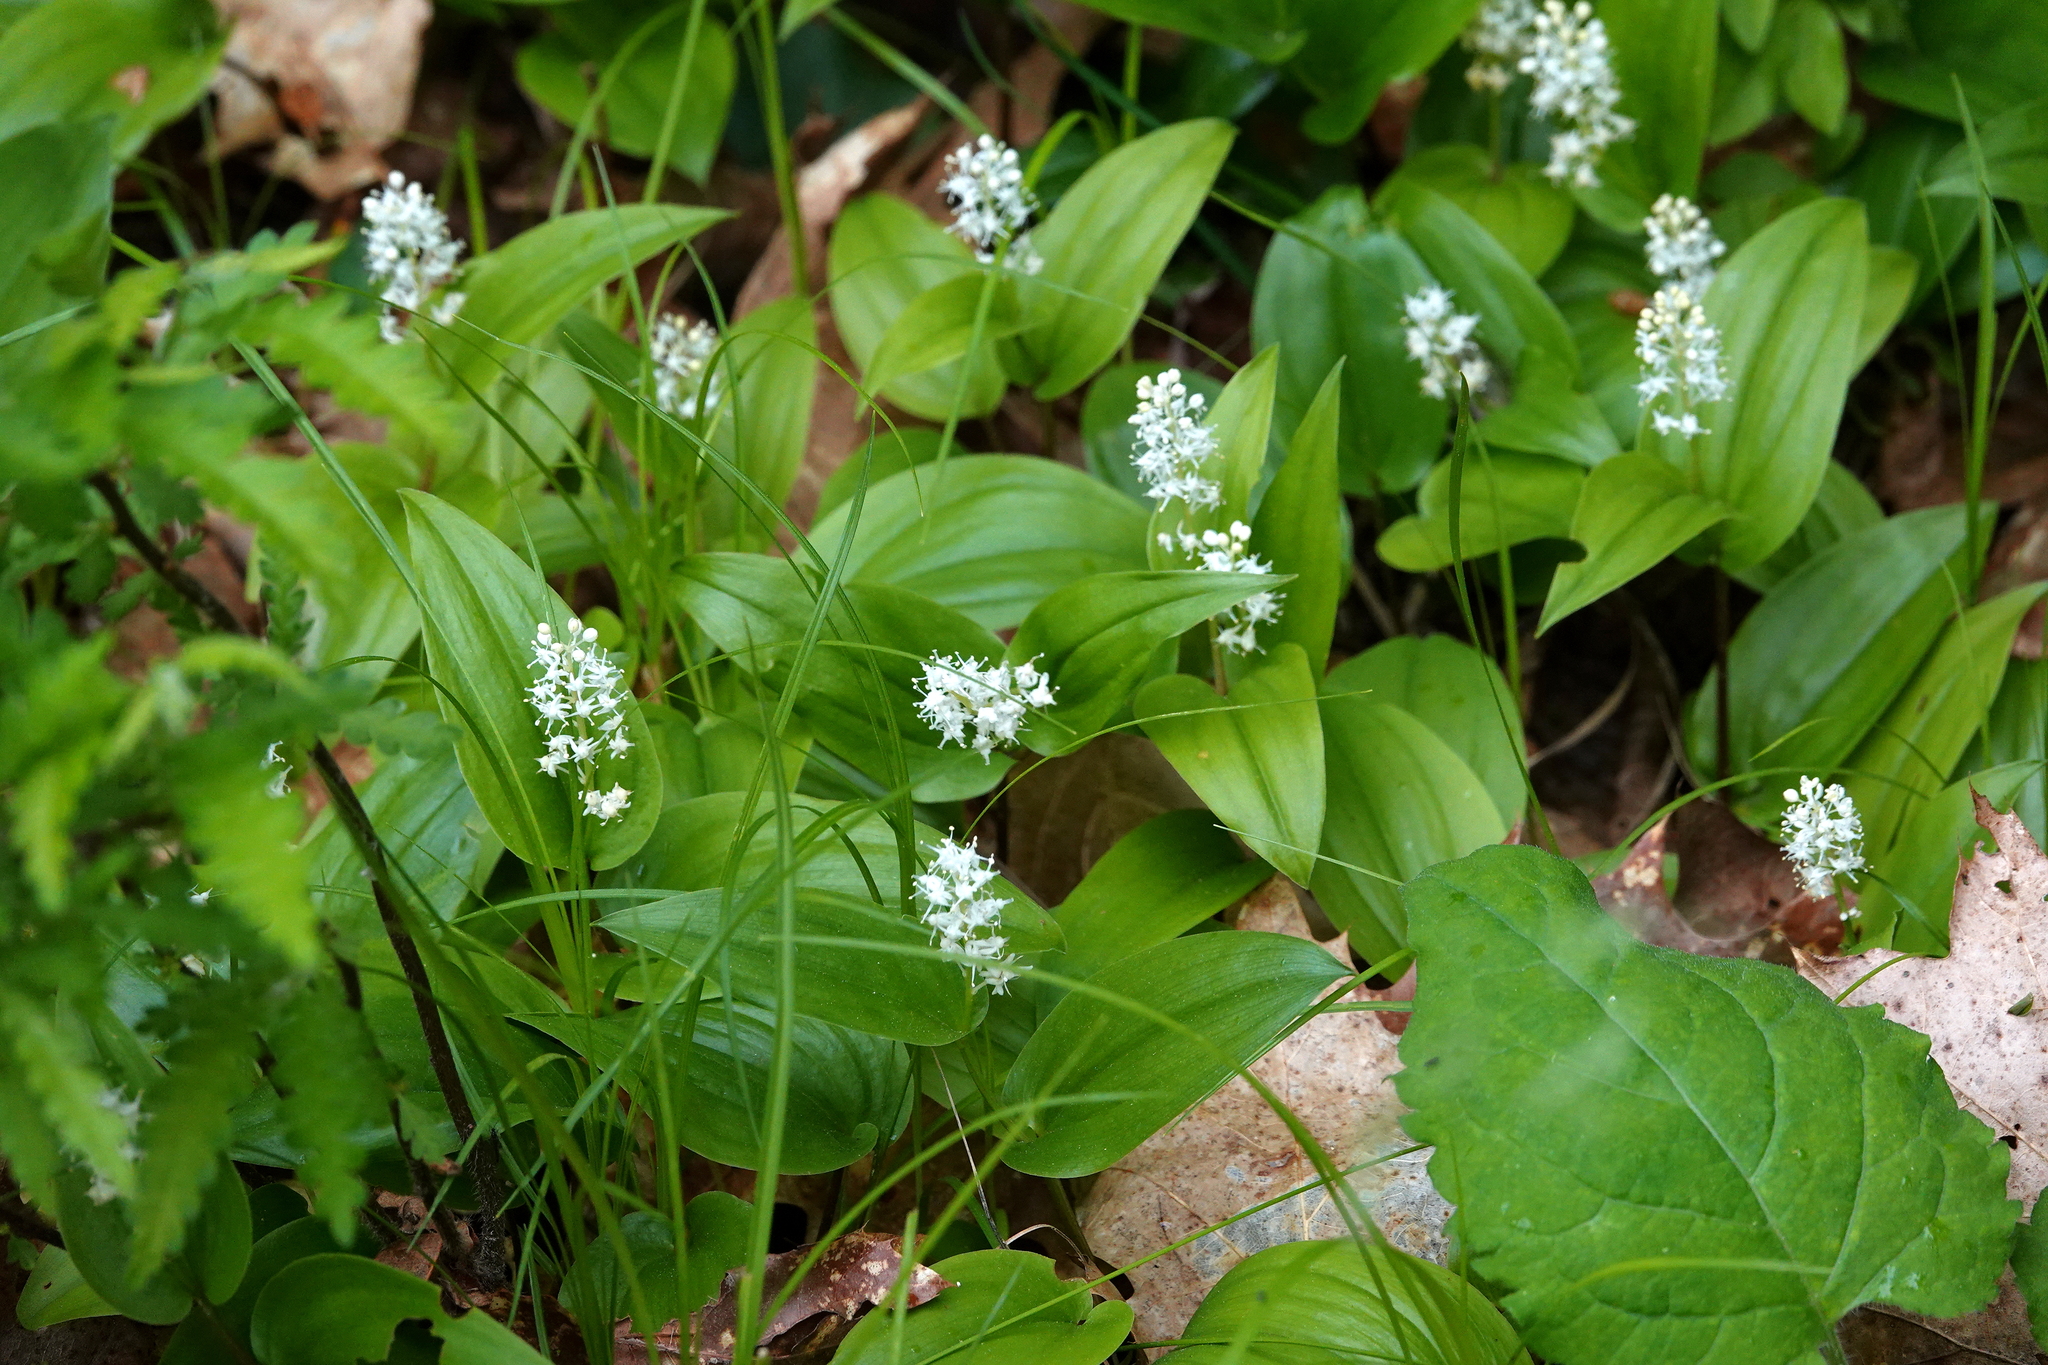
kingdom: Plantae
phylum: Tracheophyta
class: Liliopsida
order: Asparagales
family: Asparagaceae
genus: Maianthemum
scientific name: Maianthemum canadense
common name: False lily-of-the-valley
